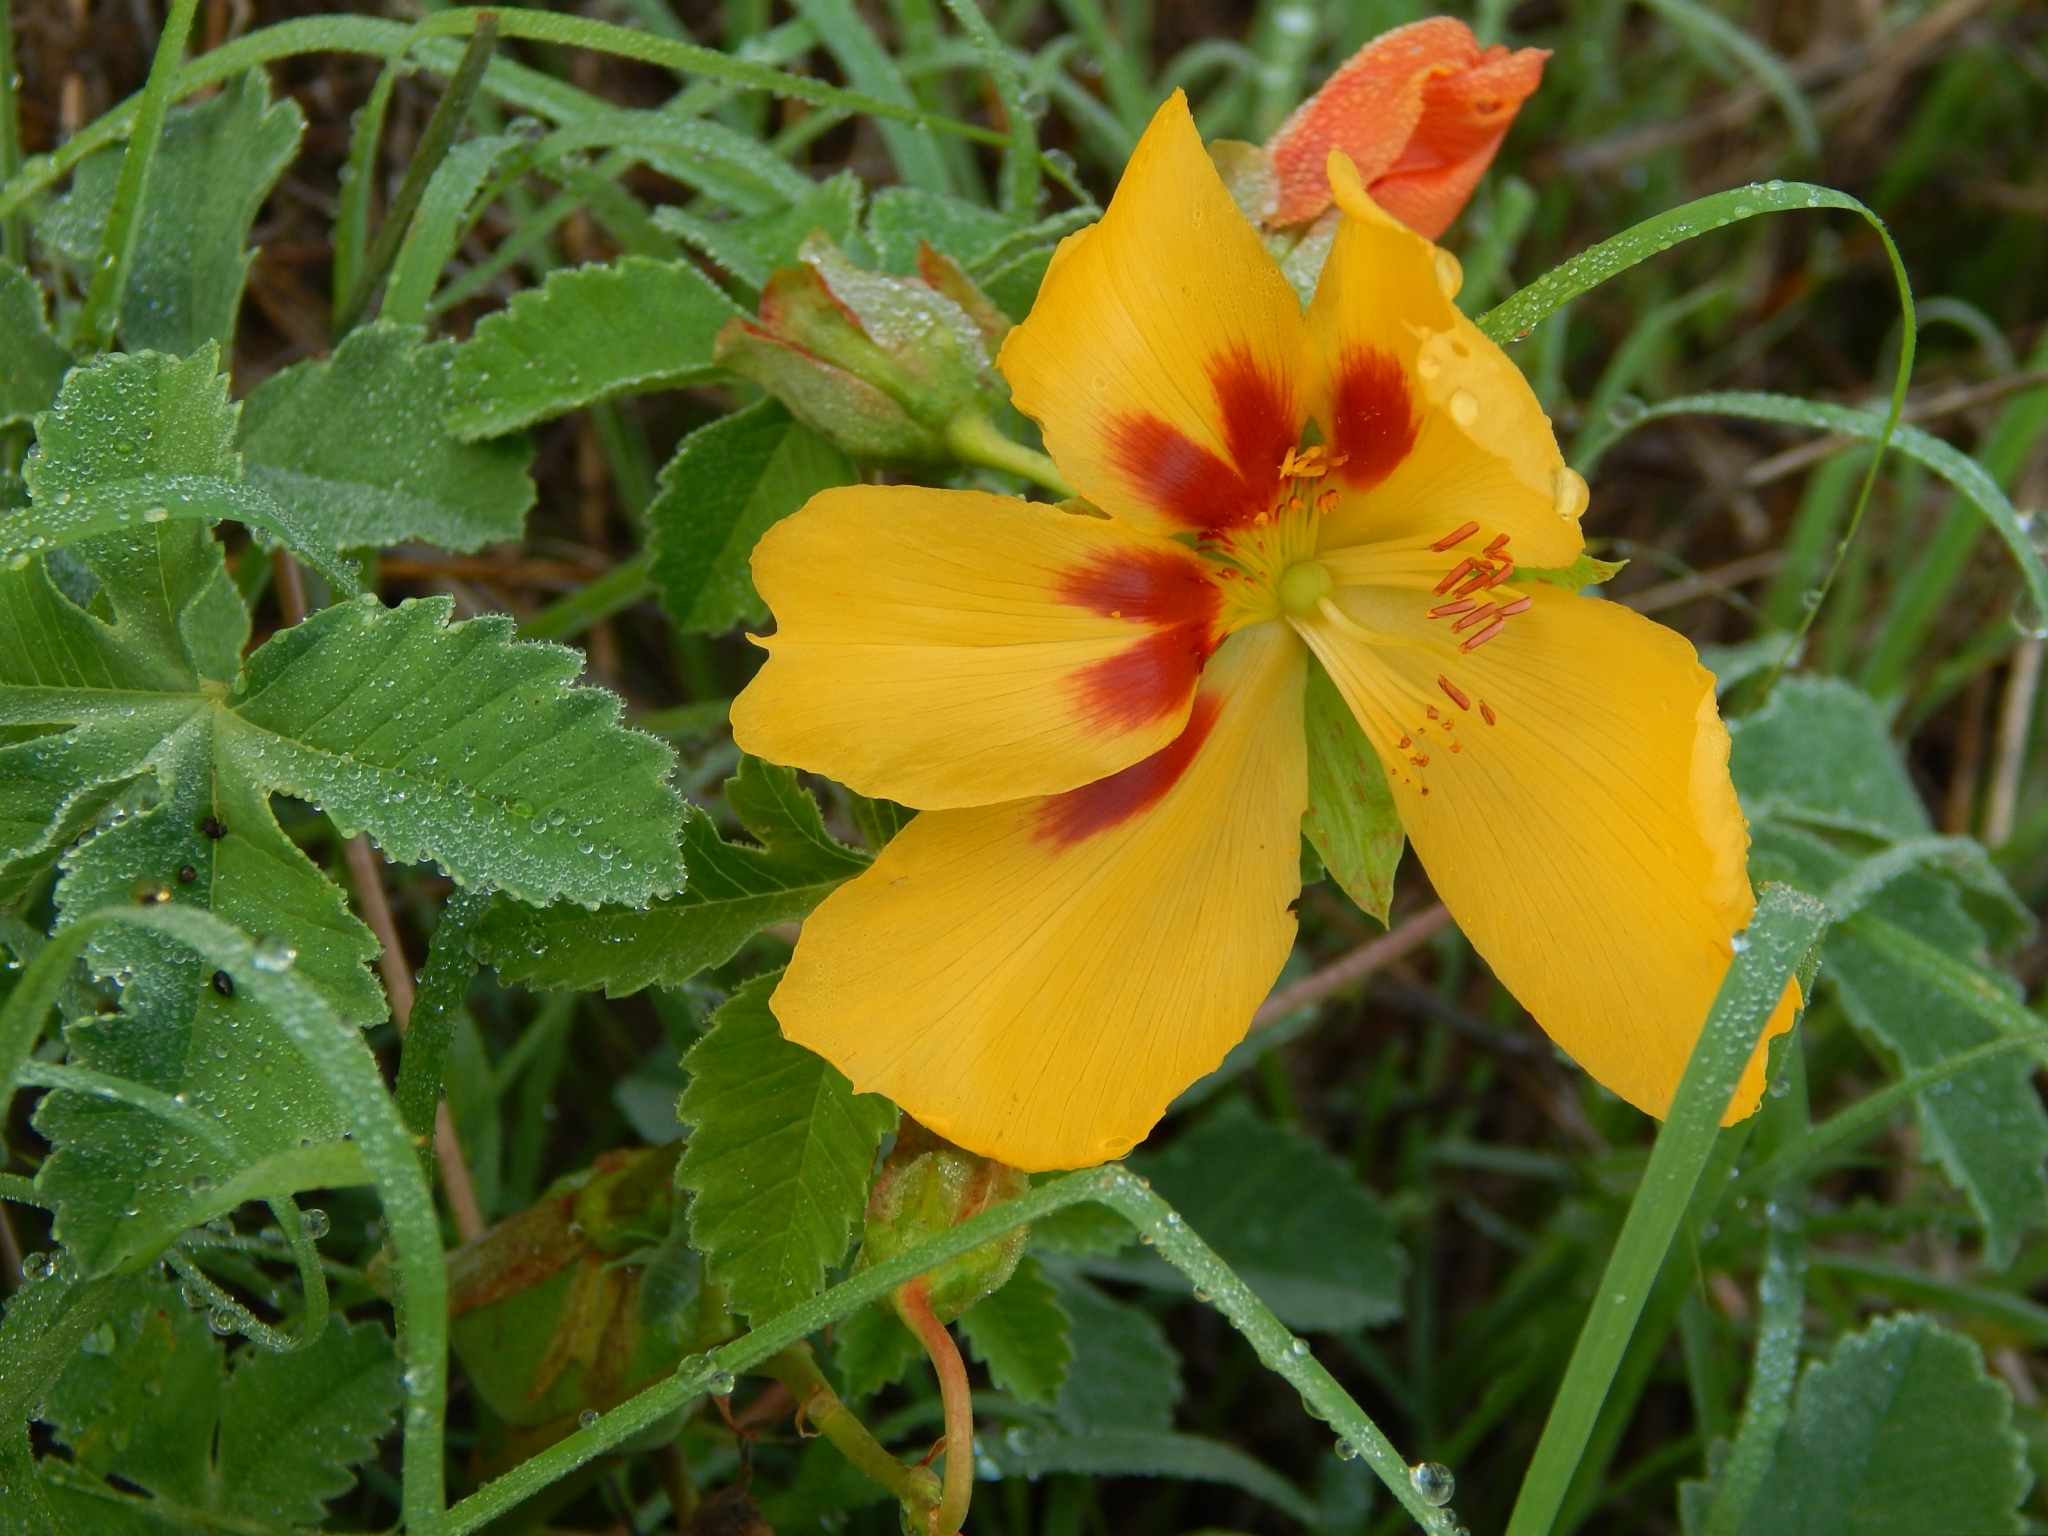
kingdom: Plantae
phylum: Tracheophyta
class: Magnoliopsida
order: Malvales
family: Cochlospermaceae
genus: Cochlospermum
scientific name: Cochlospermum wrightii
